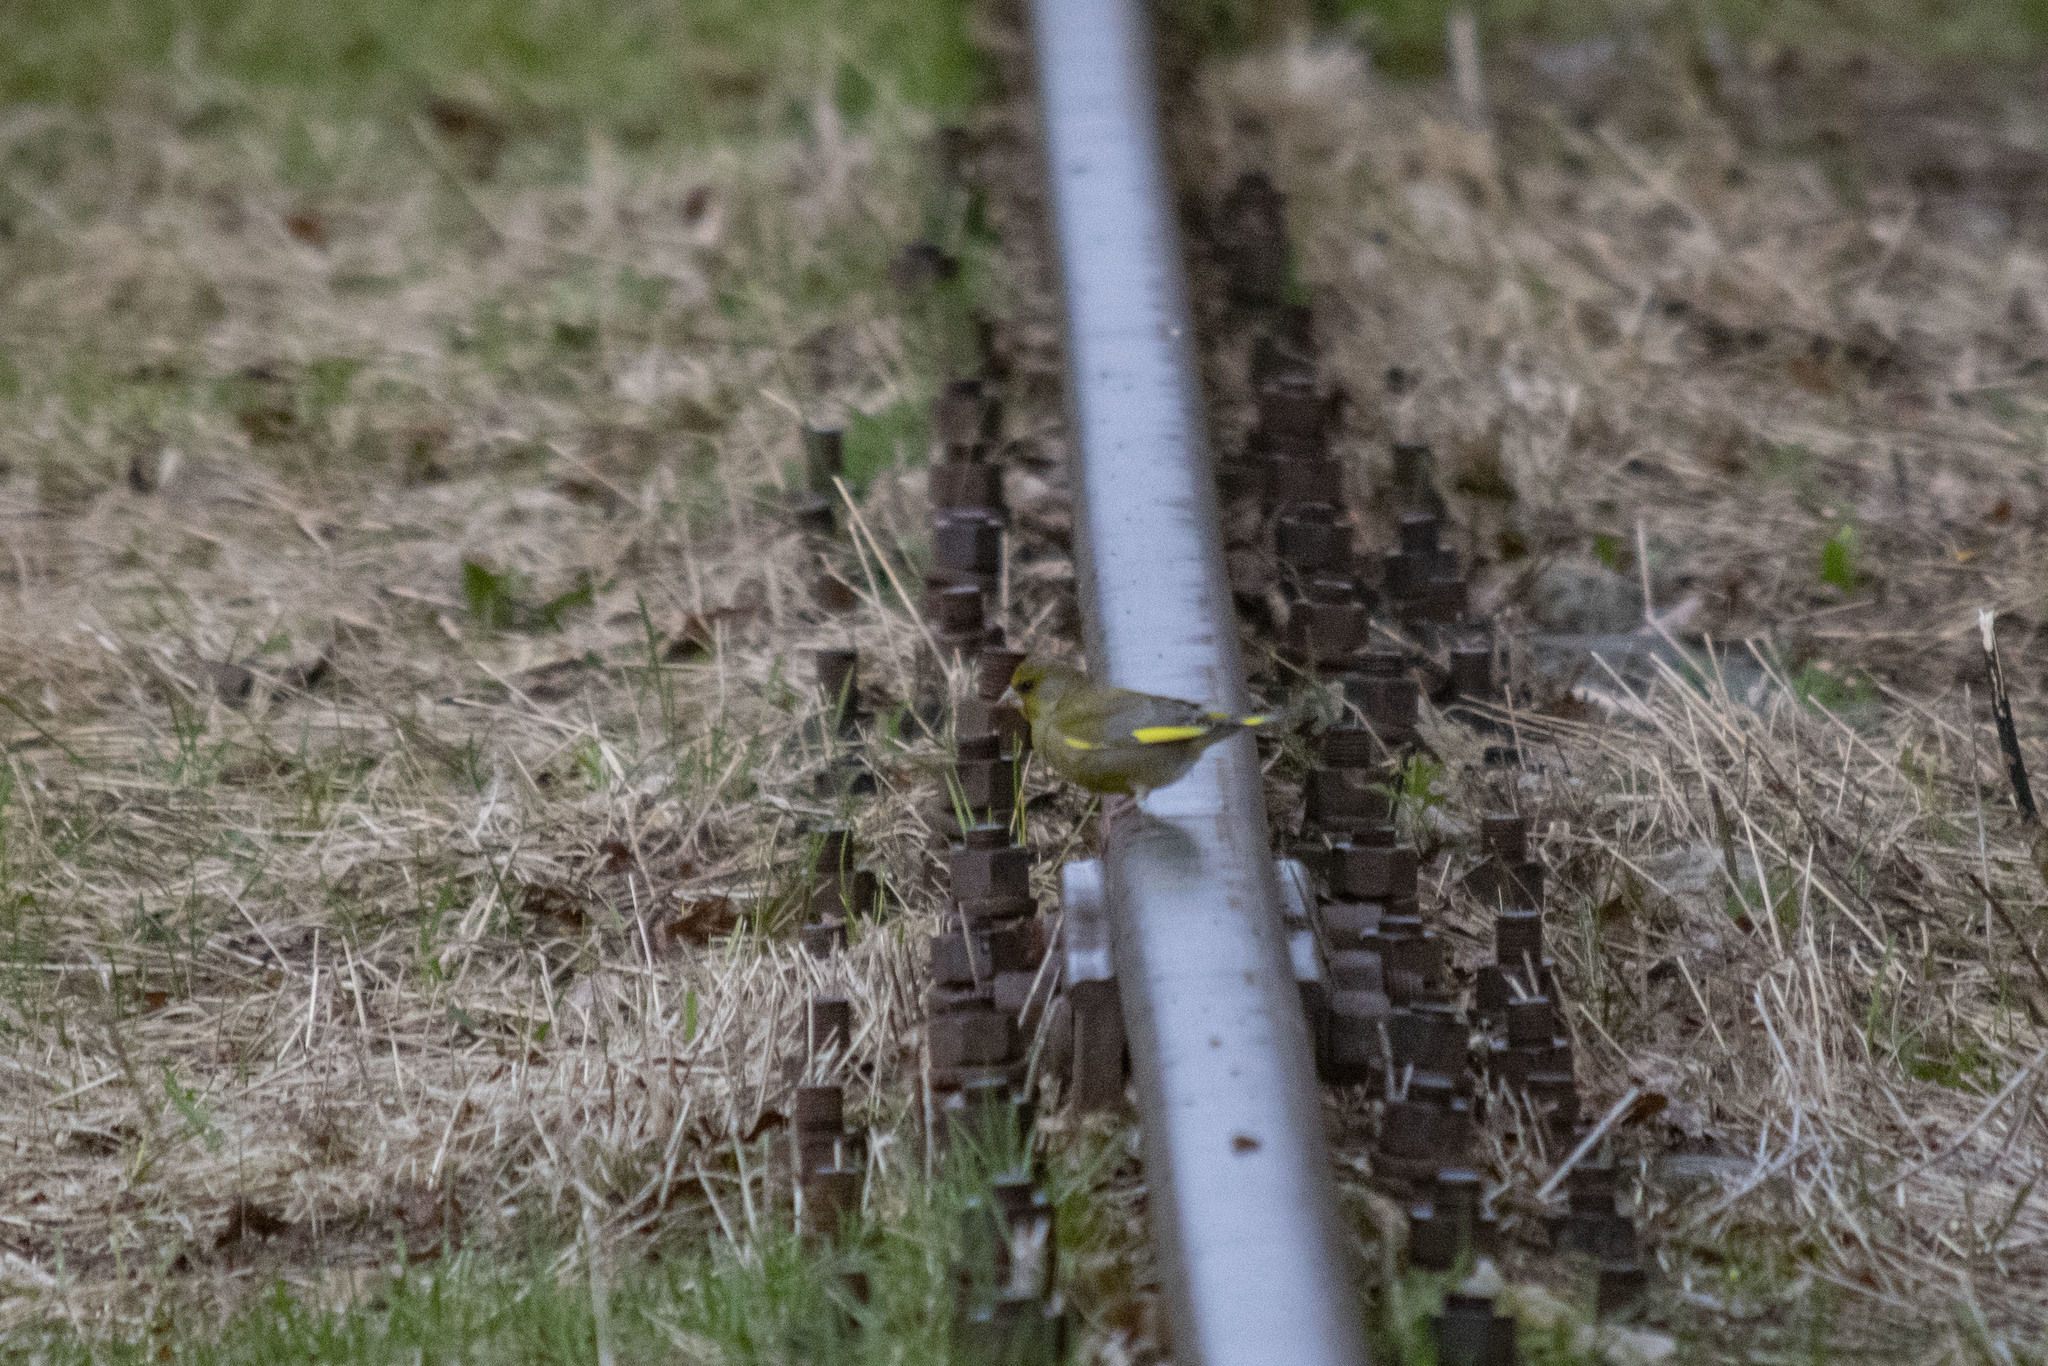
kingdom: Plantae
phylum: Tracheophyta
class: Liliopsida
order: Poales
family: Poaceae
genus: Chloris
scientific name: Chloris chloris
